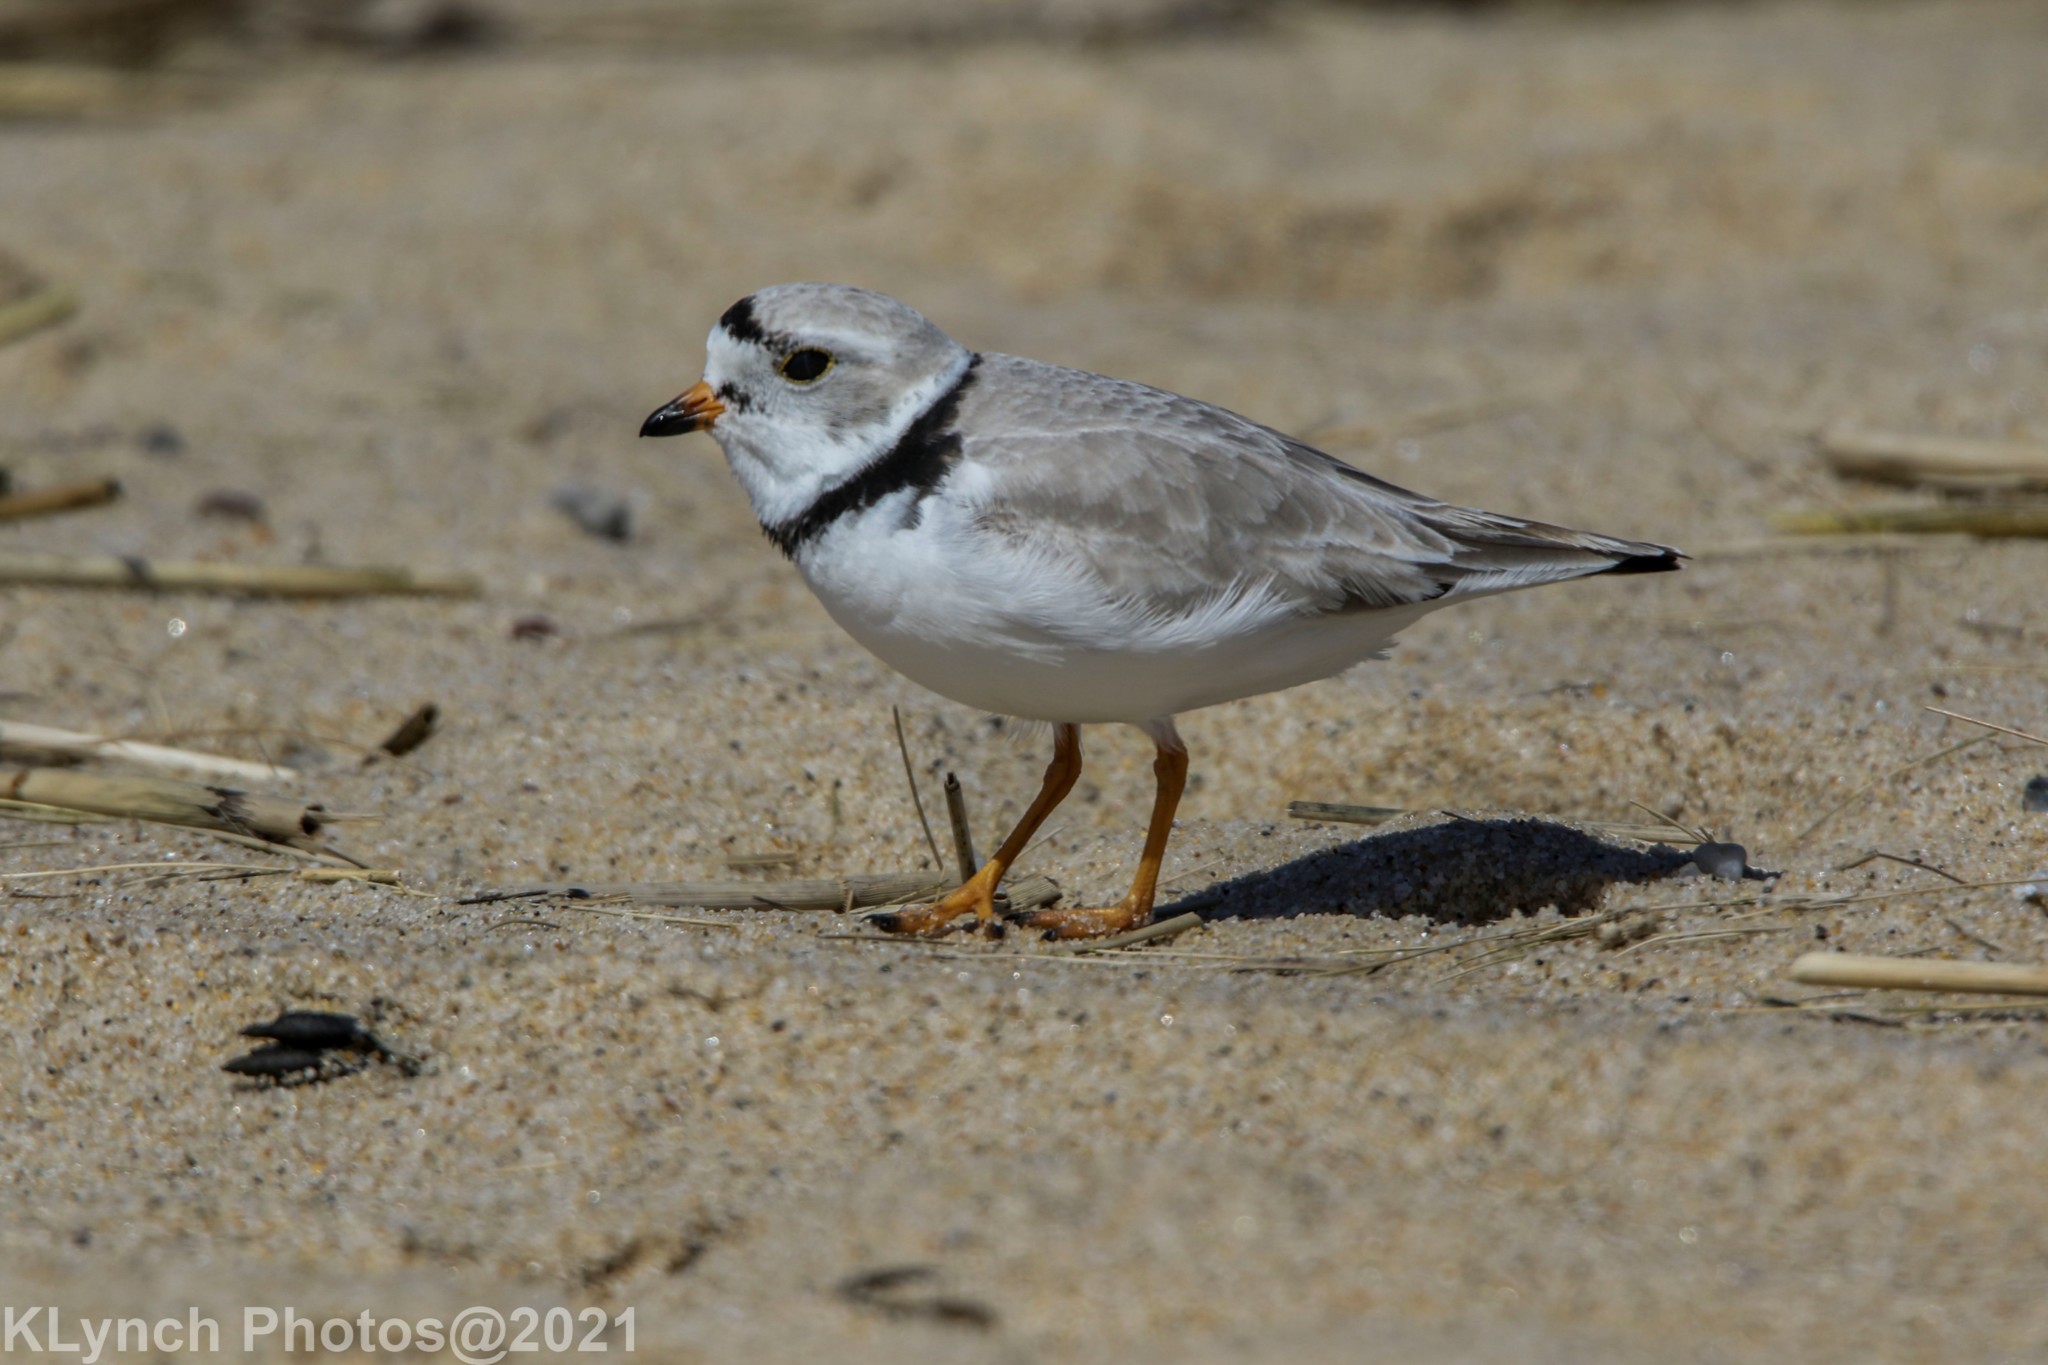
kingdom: Animalia
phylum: Chordata
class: Aves
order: Charadriiformes
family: Charadriidae
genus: Charadrius
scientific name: Charadrius melodus
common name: Piping plover
